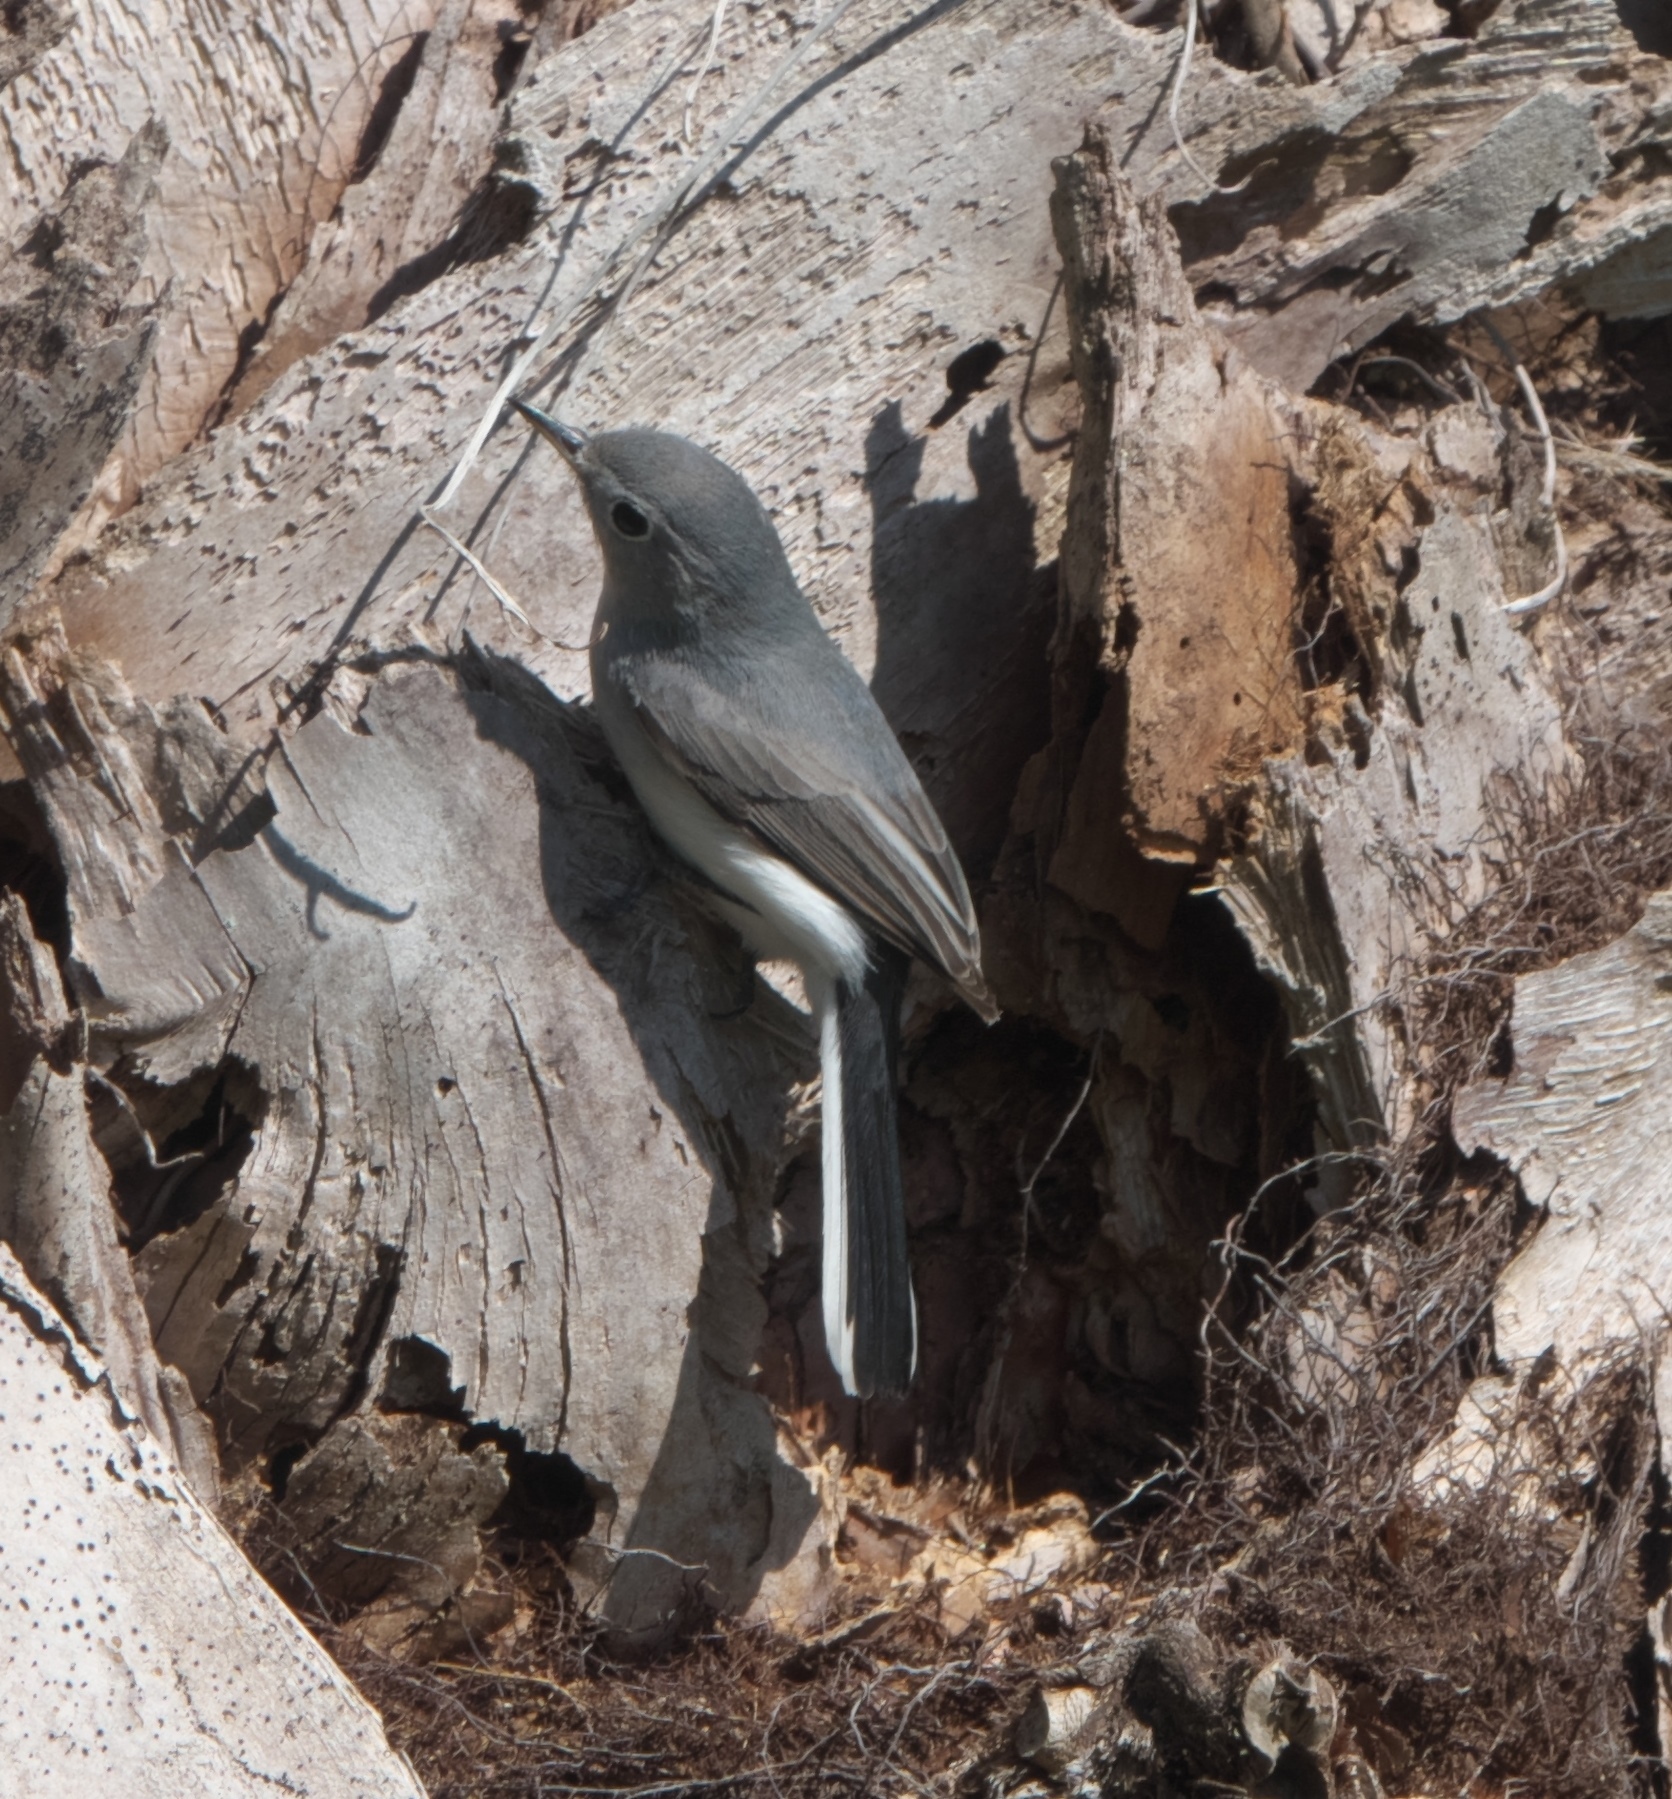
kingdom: Animalia
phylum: Chordata
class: Aves
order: Passeriformes
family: Polioptilidae
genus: Polioptila
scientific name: Polioptila caerulea
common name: Blue-gray gnatcatcher
